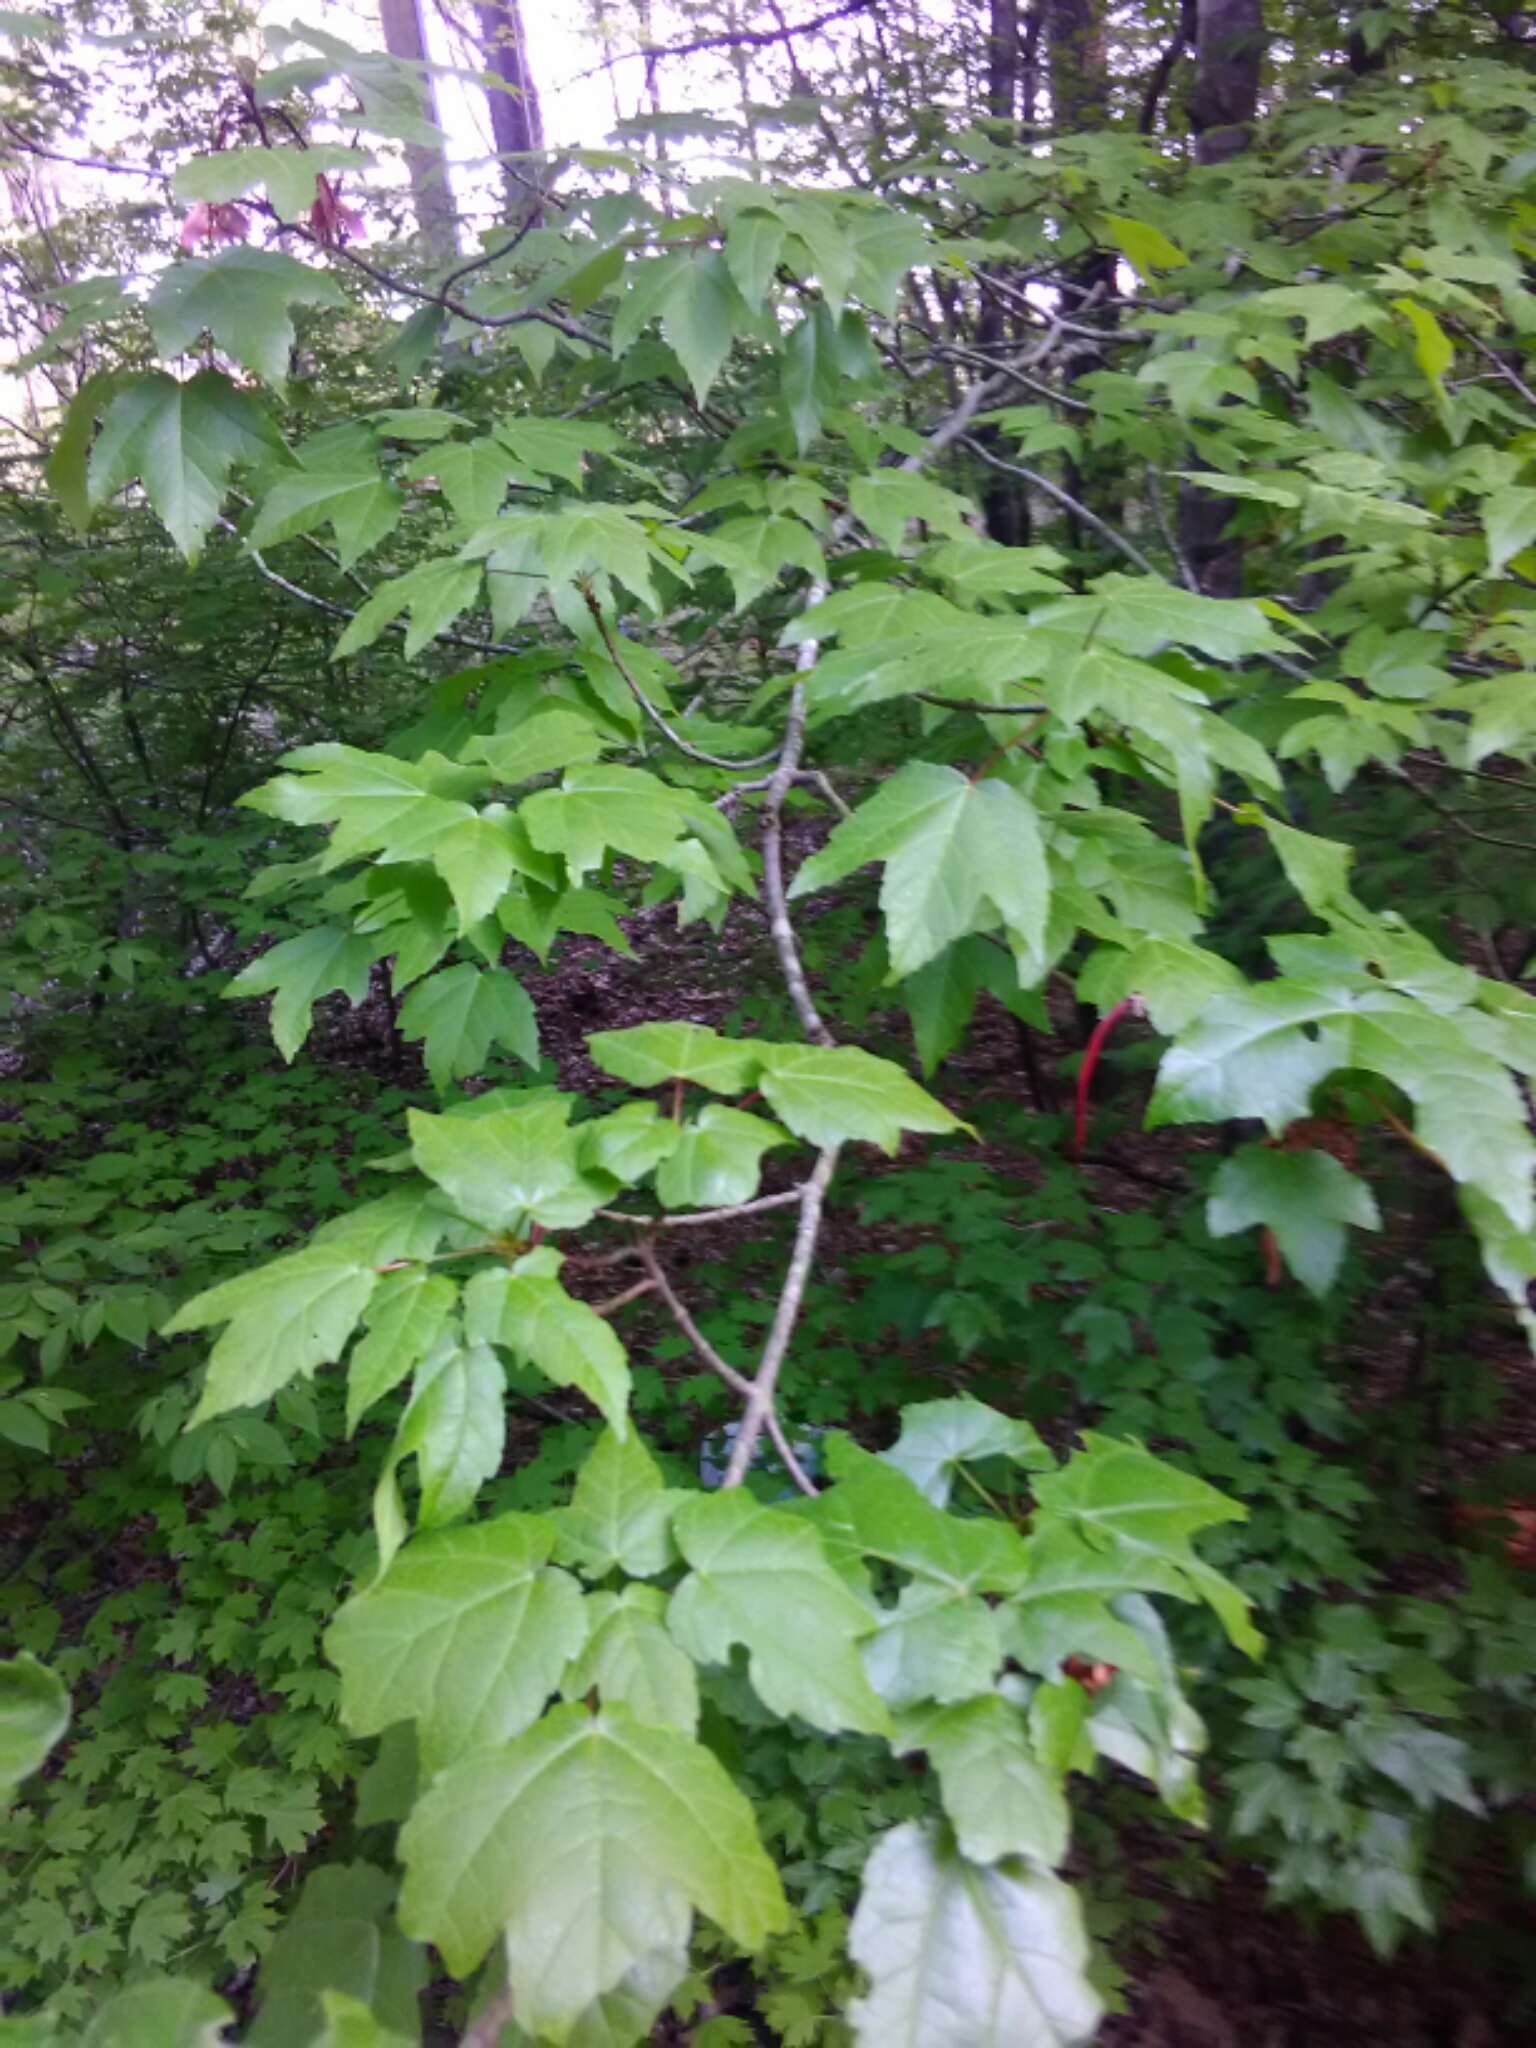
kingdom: Plantae
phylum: Tracheophyta
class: Magnoliopsida
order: Sapindales
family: Sapindaceae
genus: Acer
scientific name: Acer rubrum
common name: Red maple
